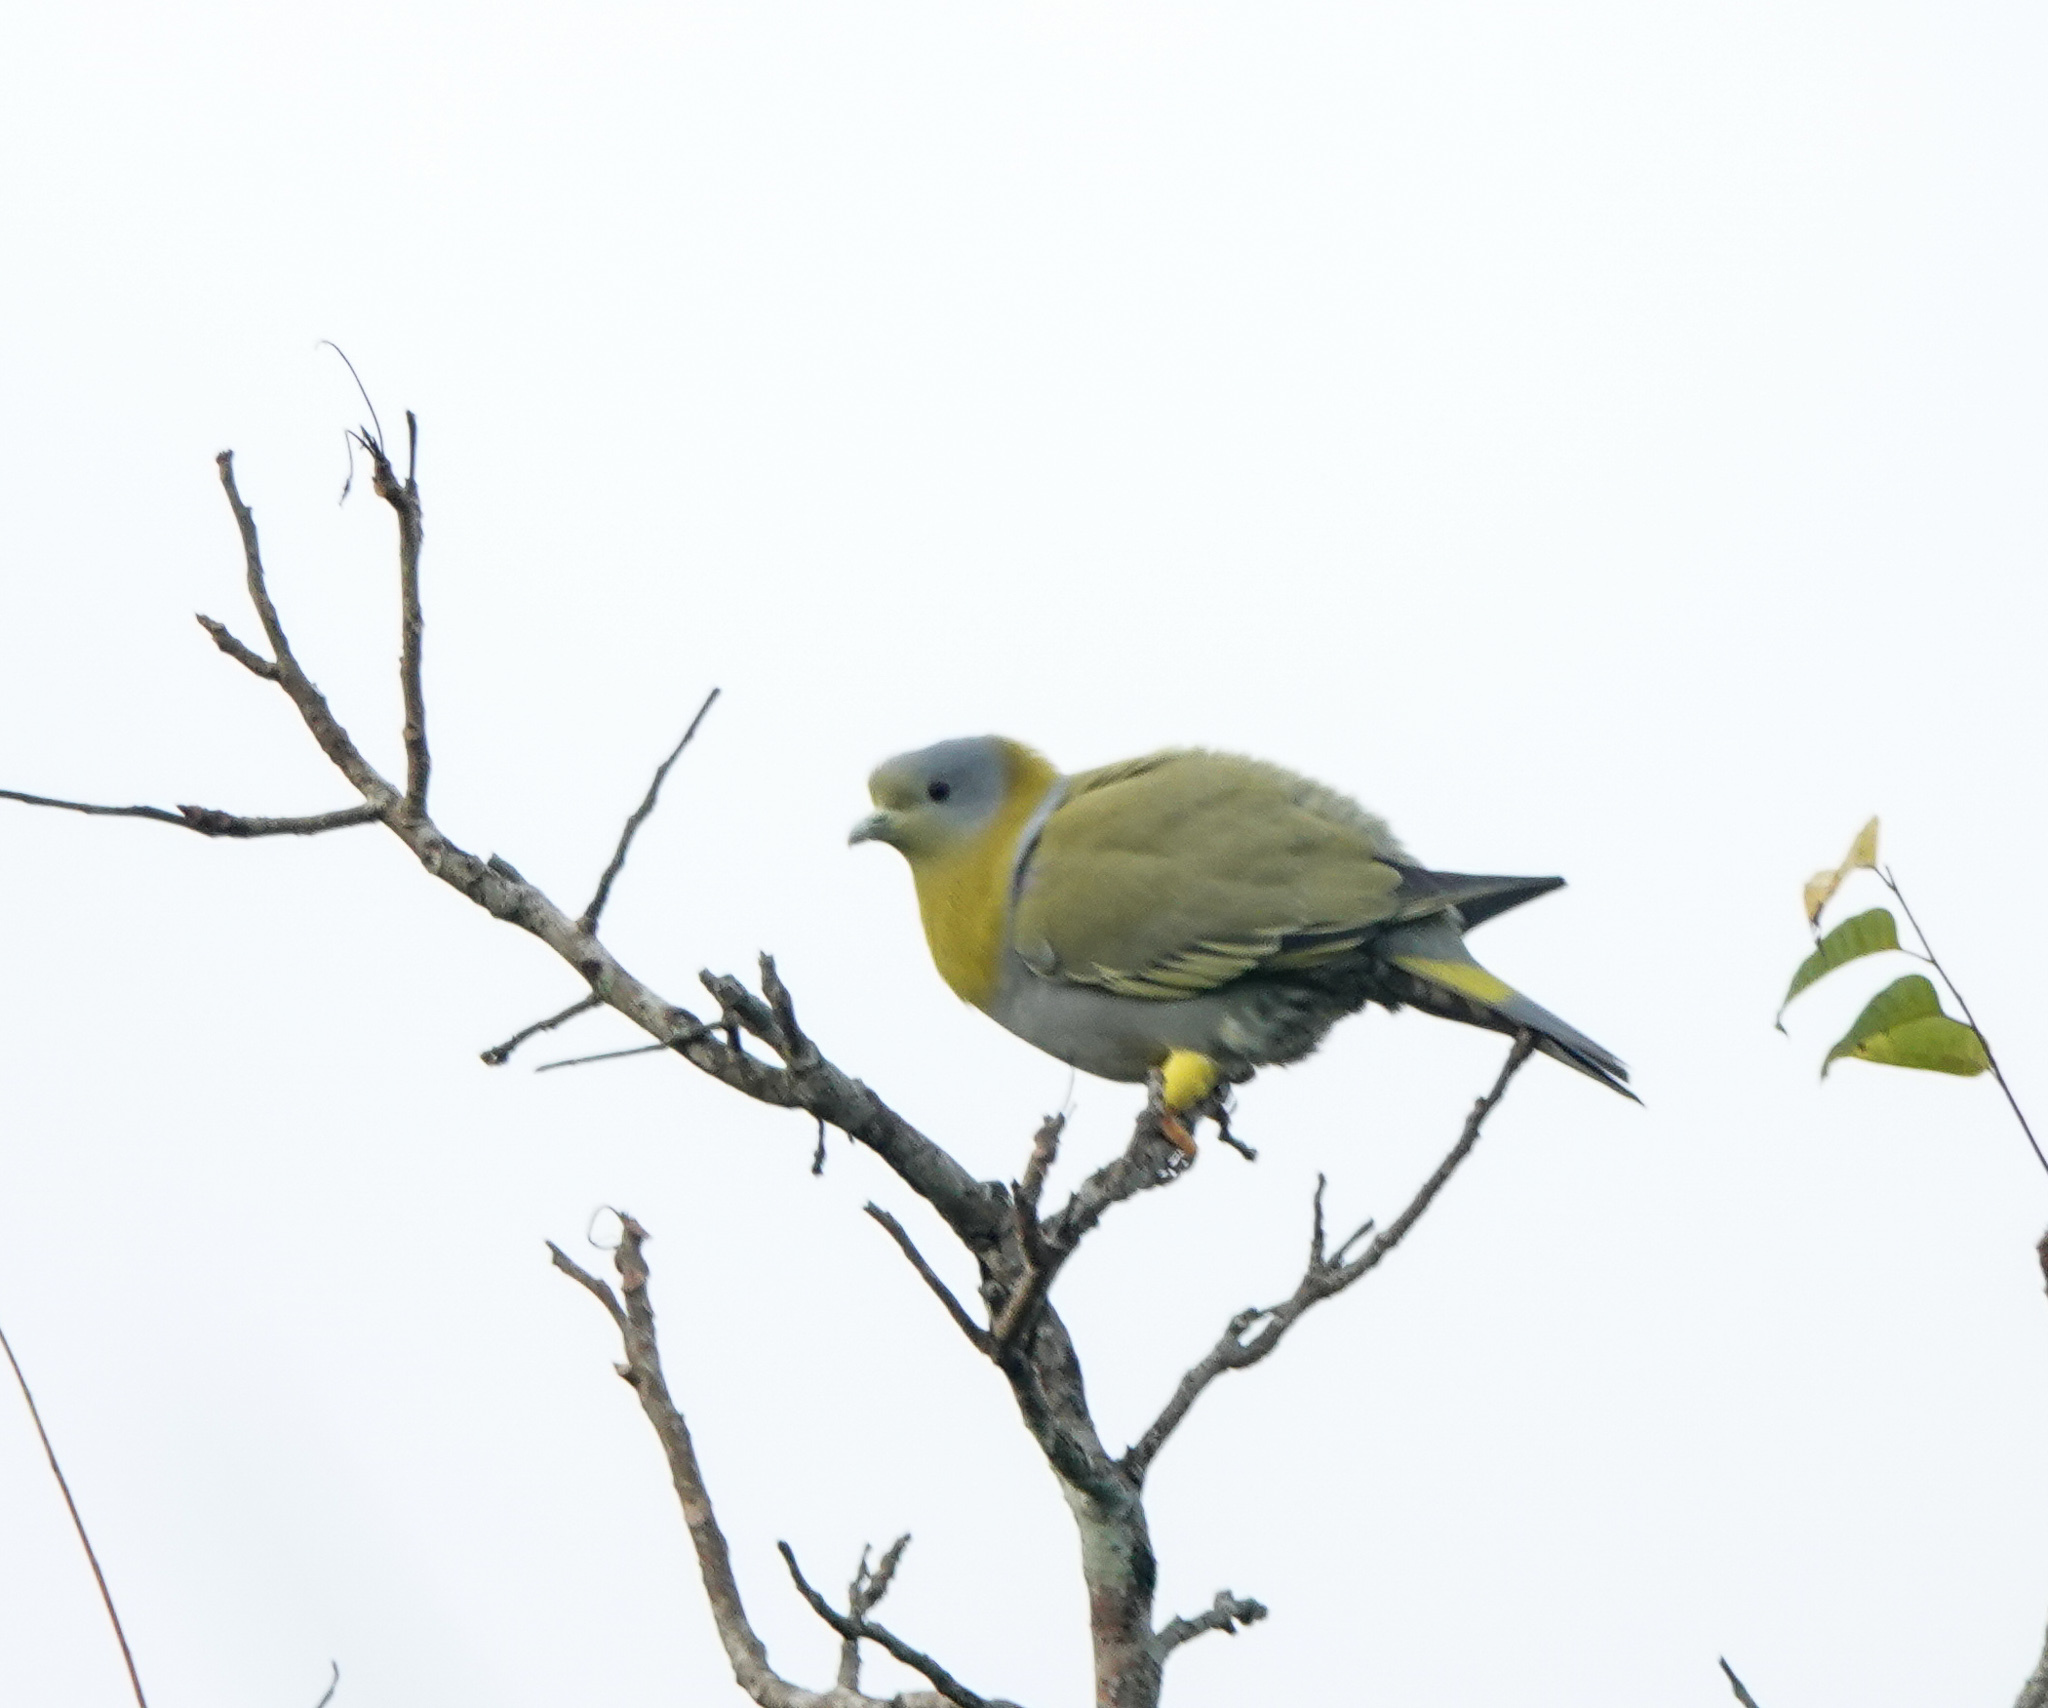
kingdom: Animalia
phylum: Chordata
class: Aves
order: Columbiformes
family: Columbidae
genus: Treron
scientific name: Treron phoenicopterus
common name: Yellow-footed green pigeon
